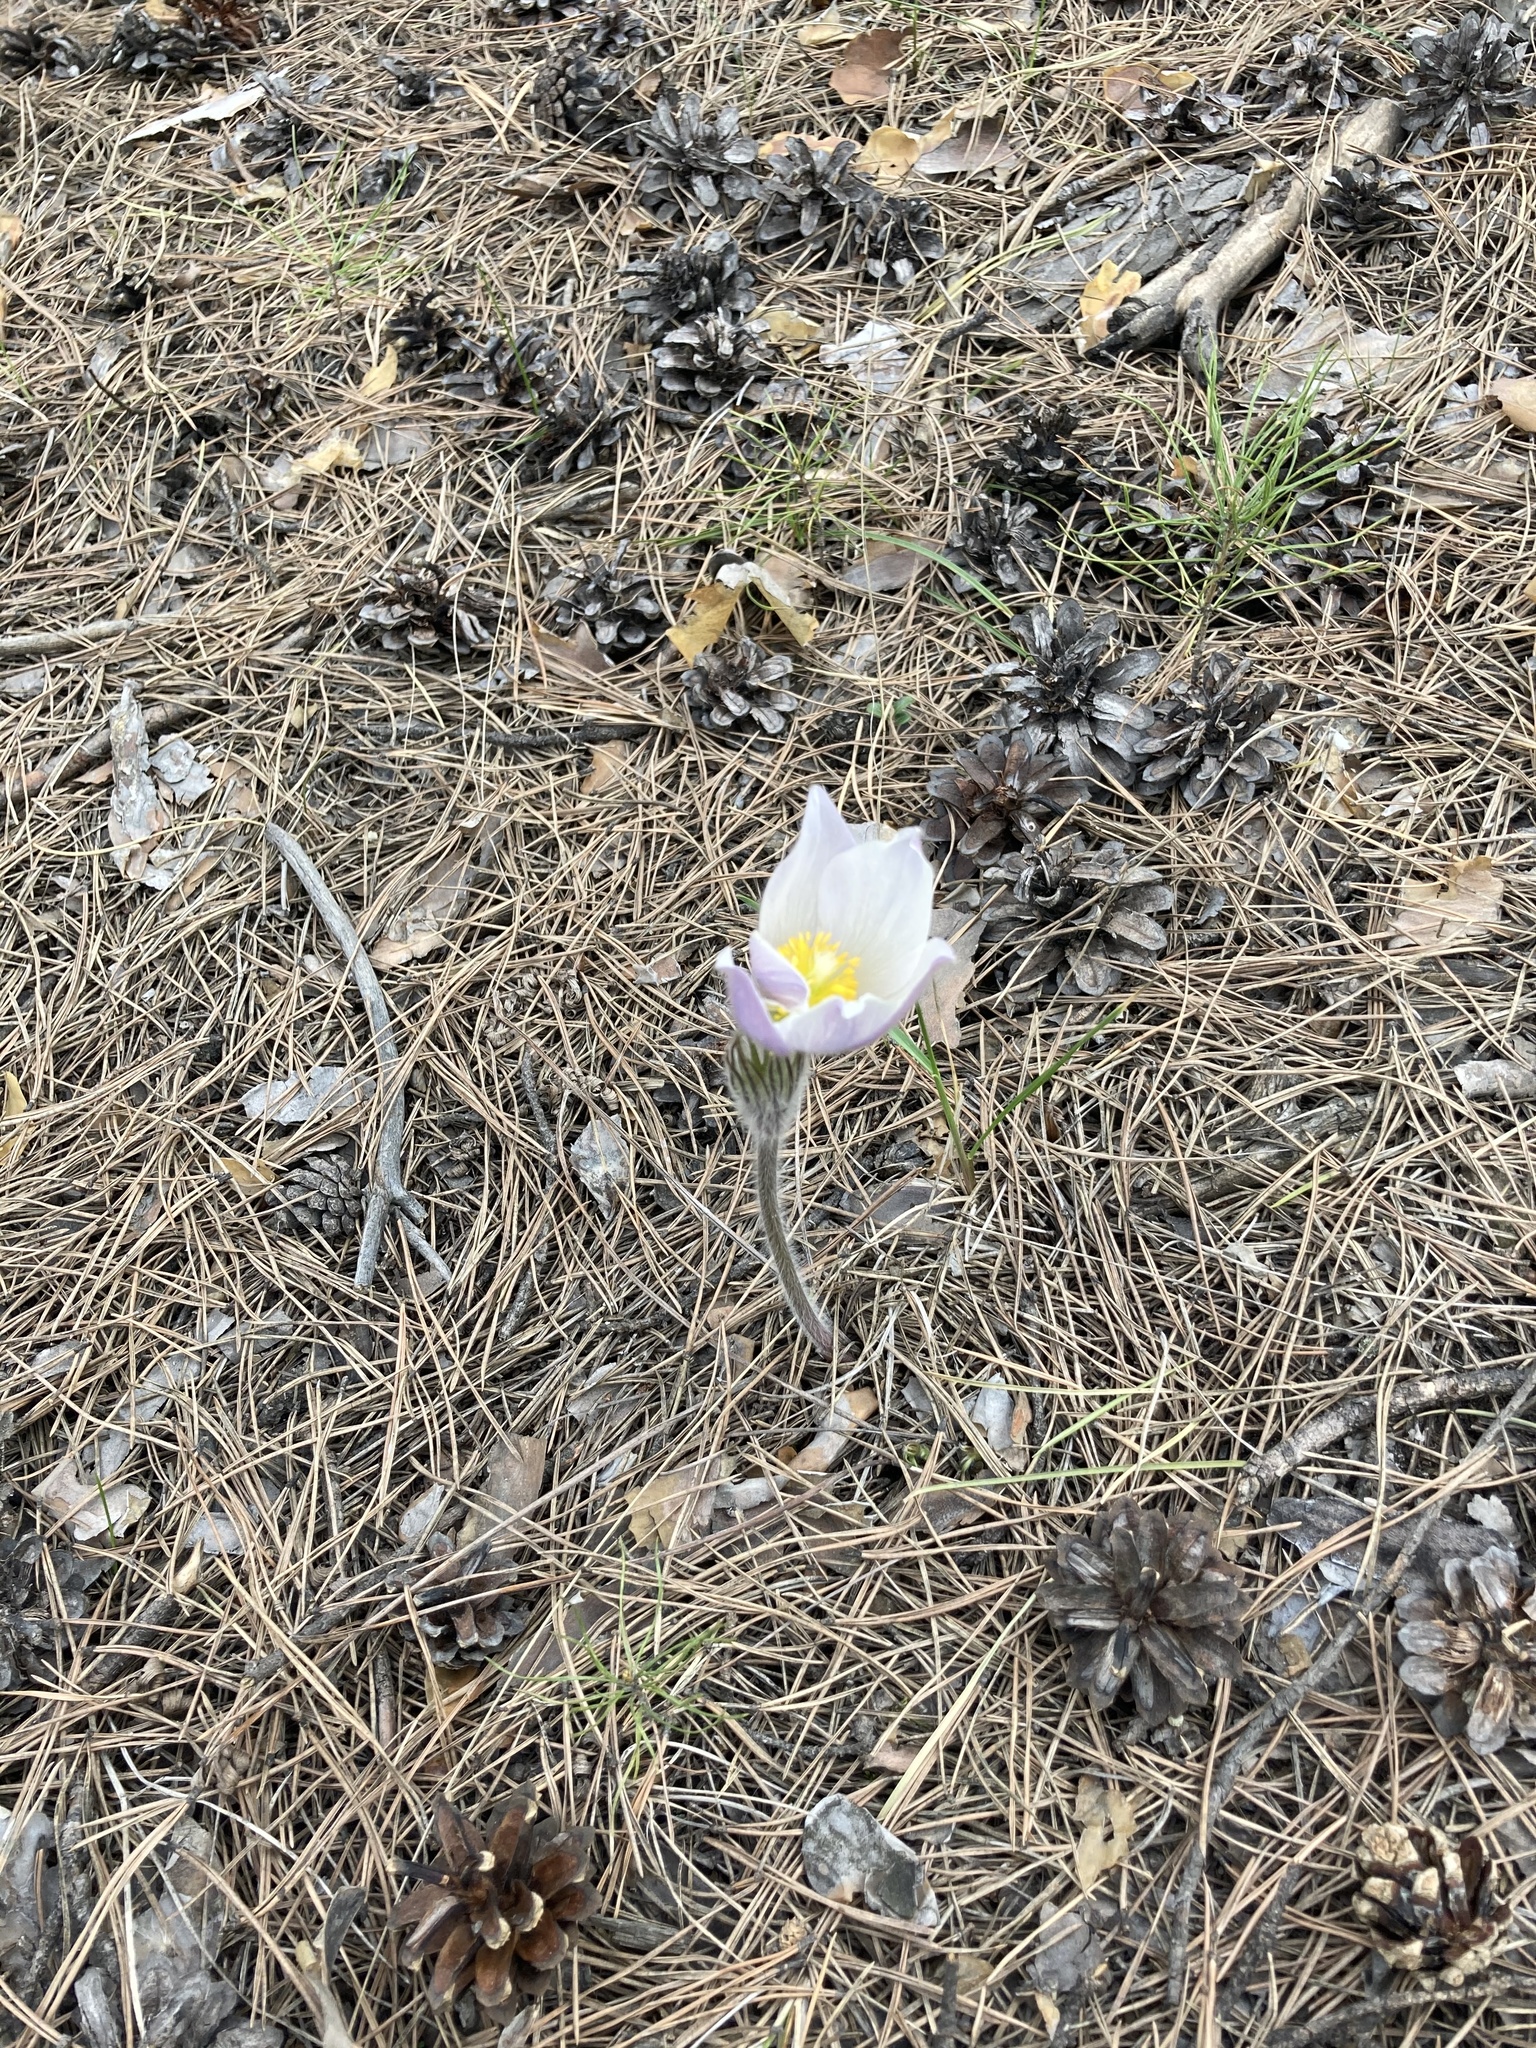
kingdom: Plantae
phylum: Tracheophyta
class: Magnoliopsida
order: Ranunculales
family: Ranunculaceae
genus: Pulsatilla
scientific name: Pulsatilla patens
